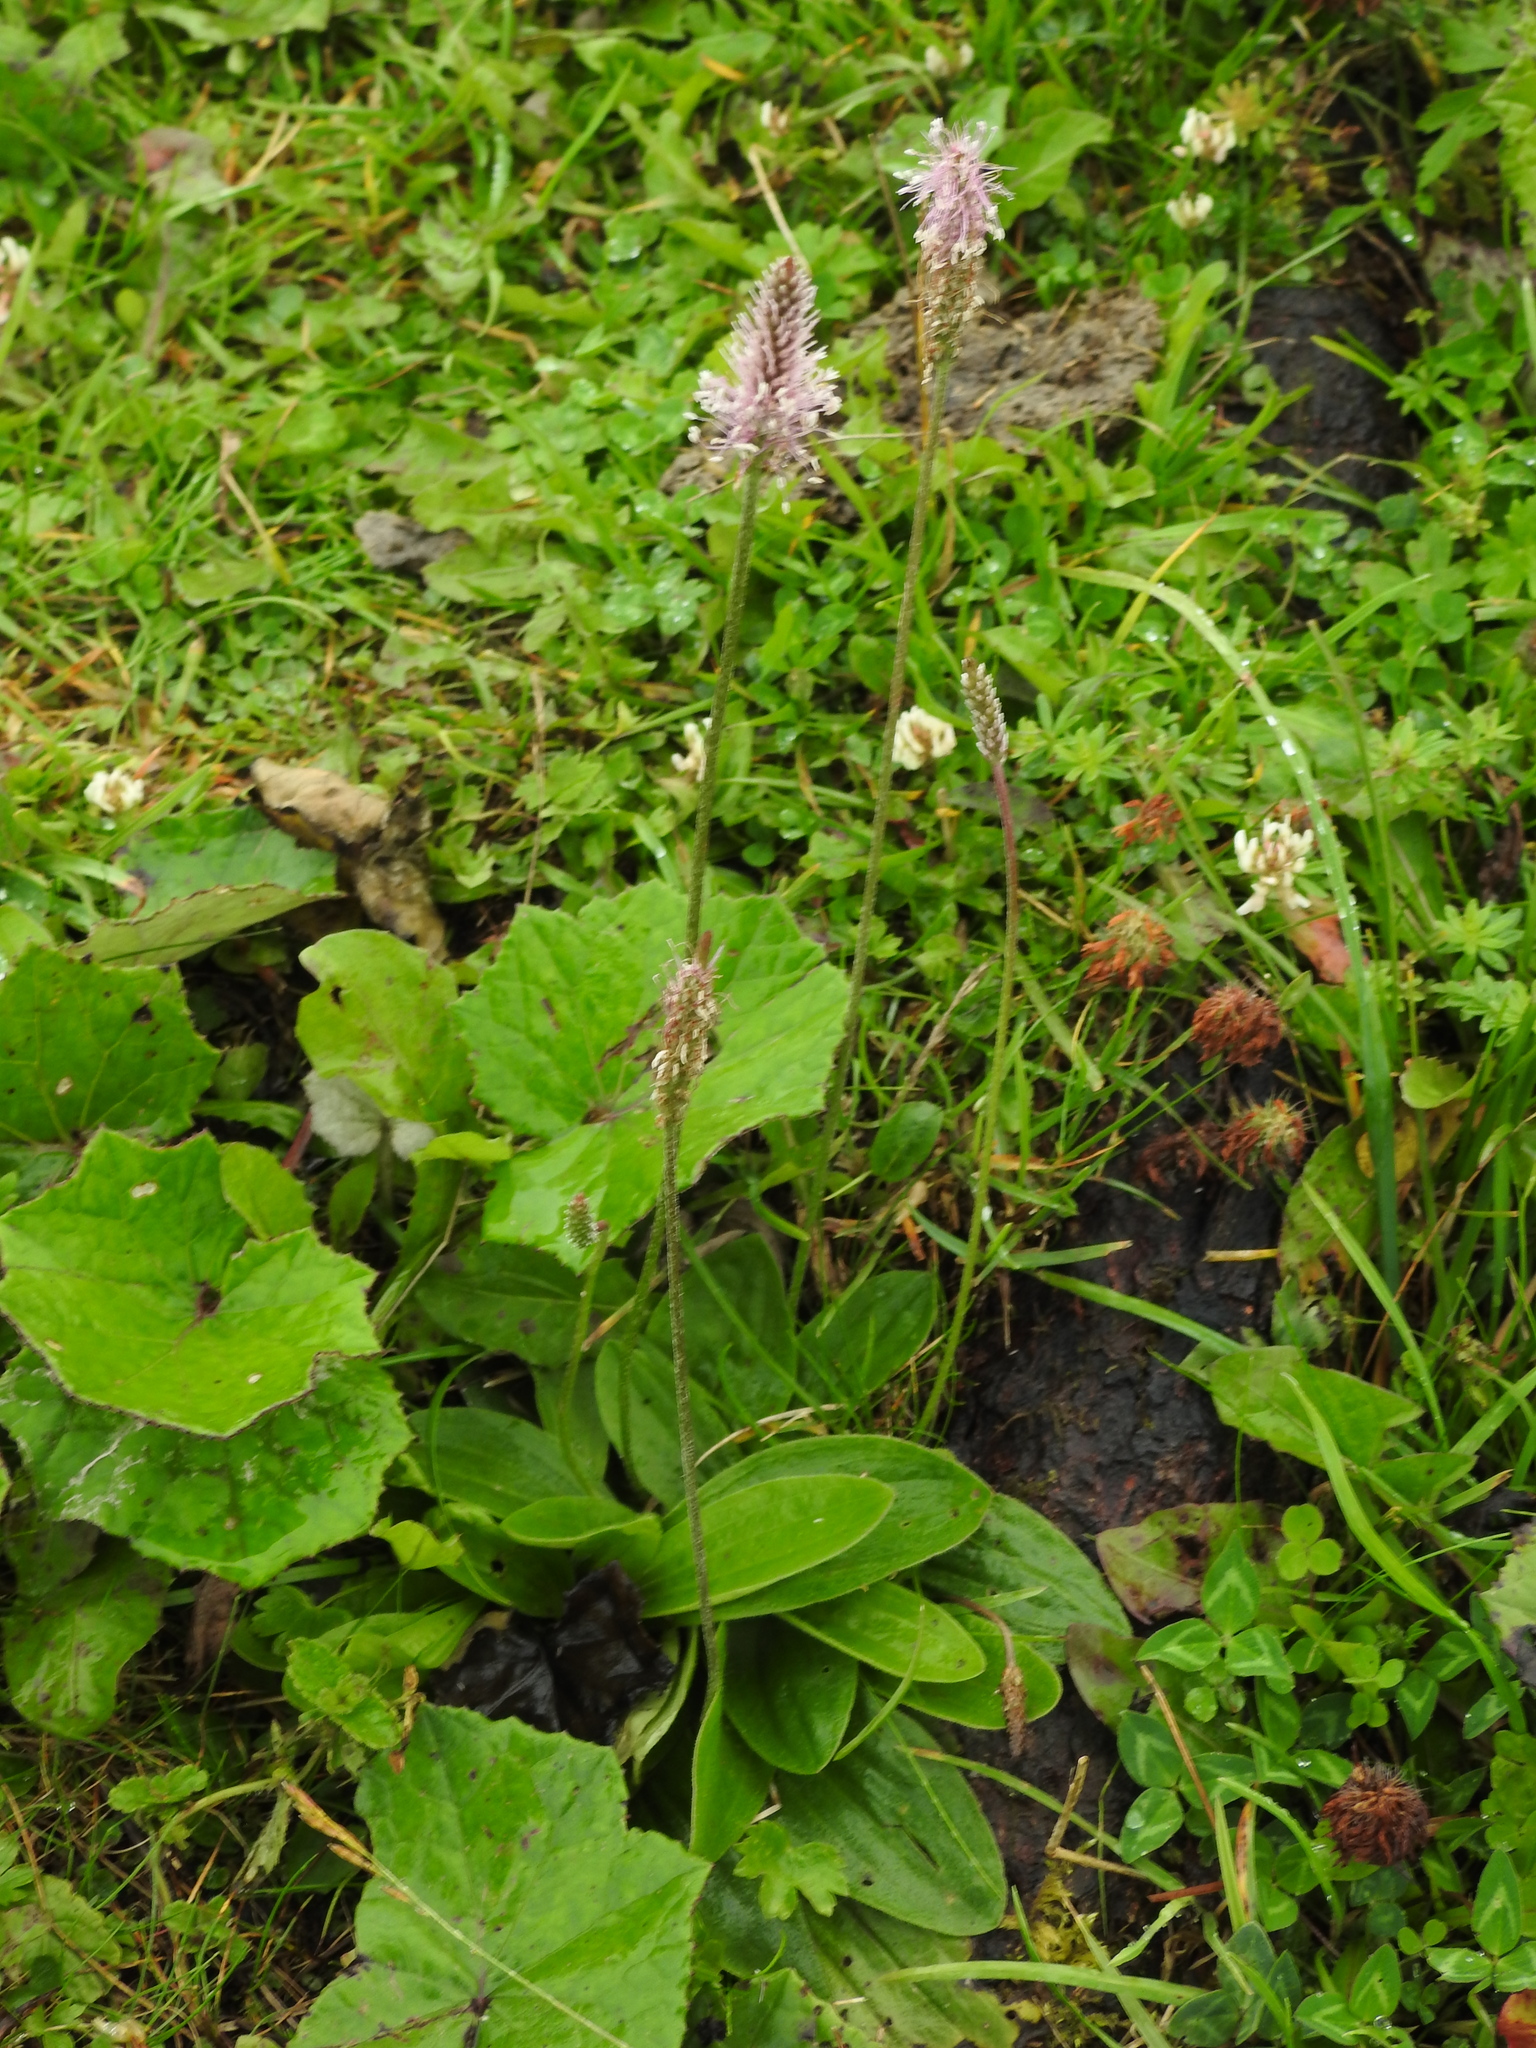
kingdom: Plantae
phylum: Tracheophyta
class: Magnoliopsida
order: Lamiales
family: Plantaginaceae
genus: Plantago
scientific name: Plantago media
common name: Hoary plantain
